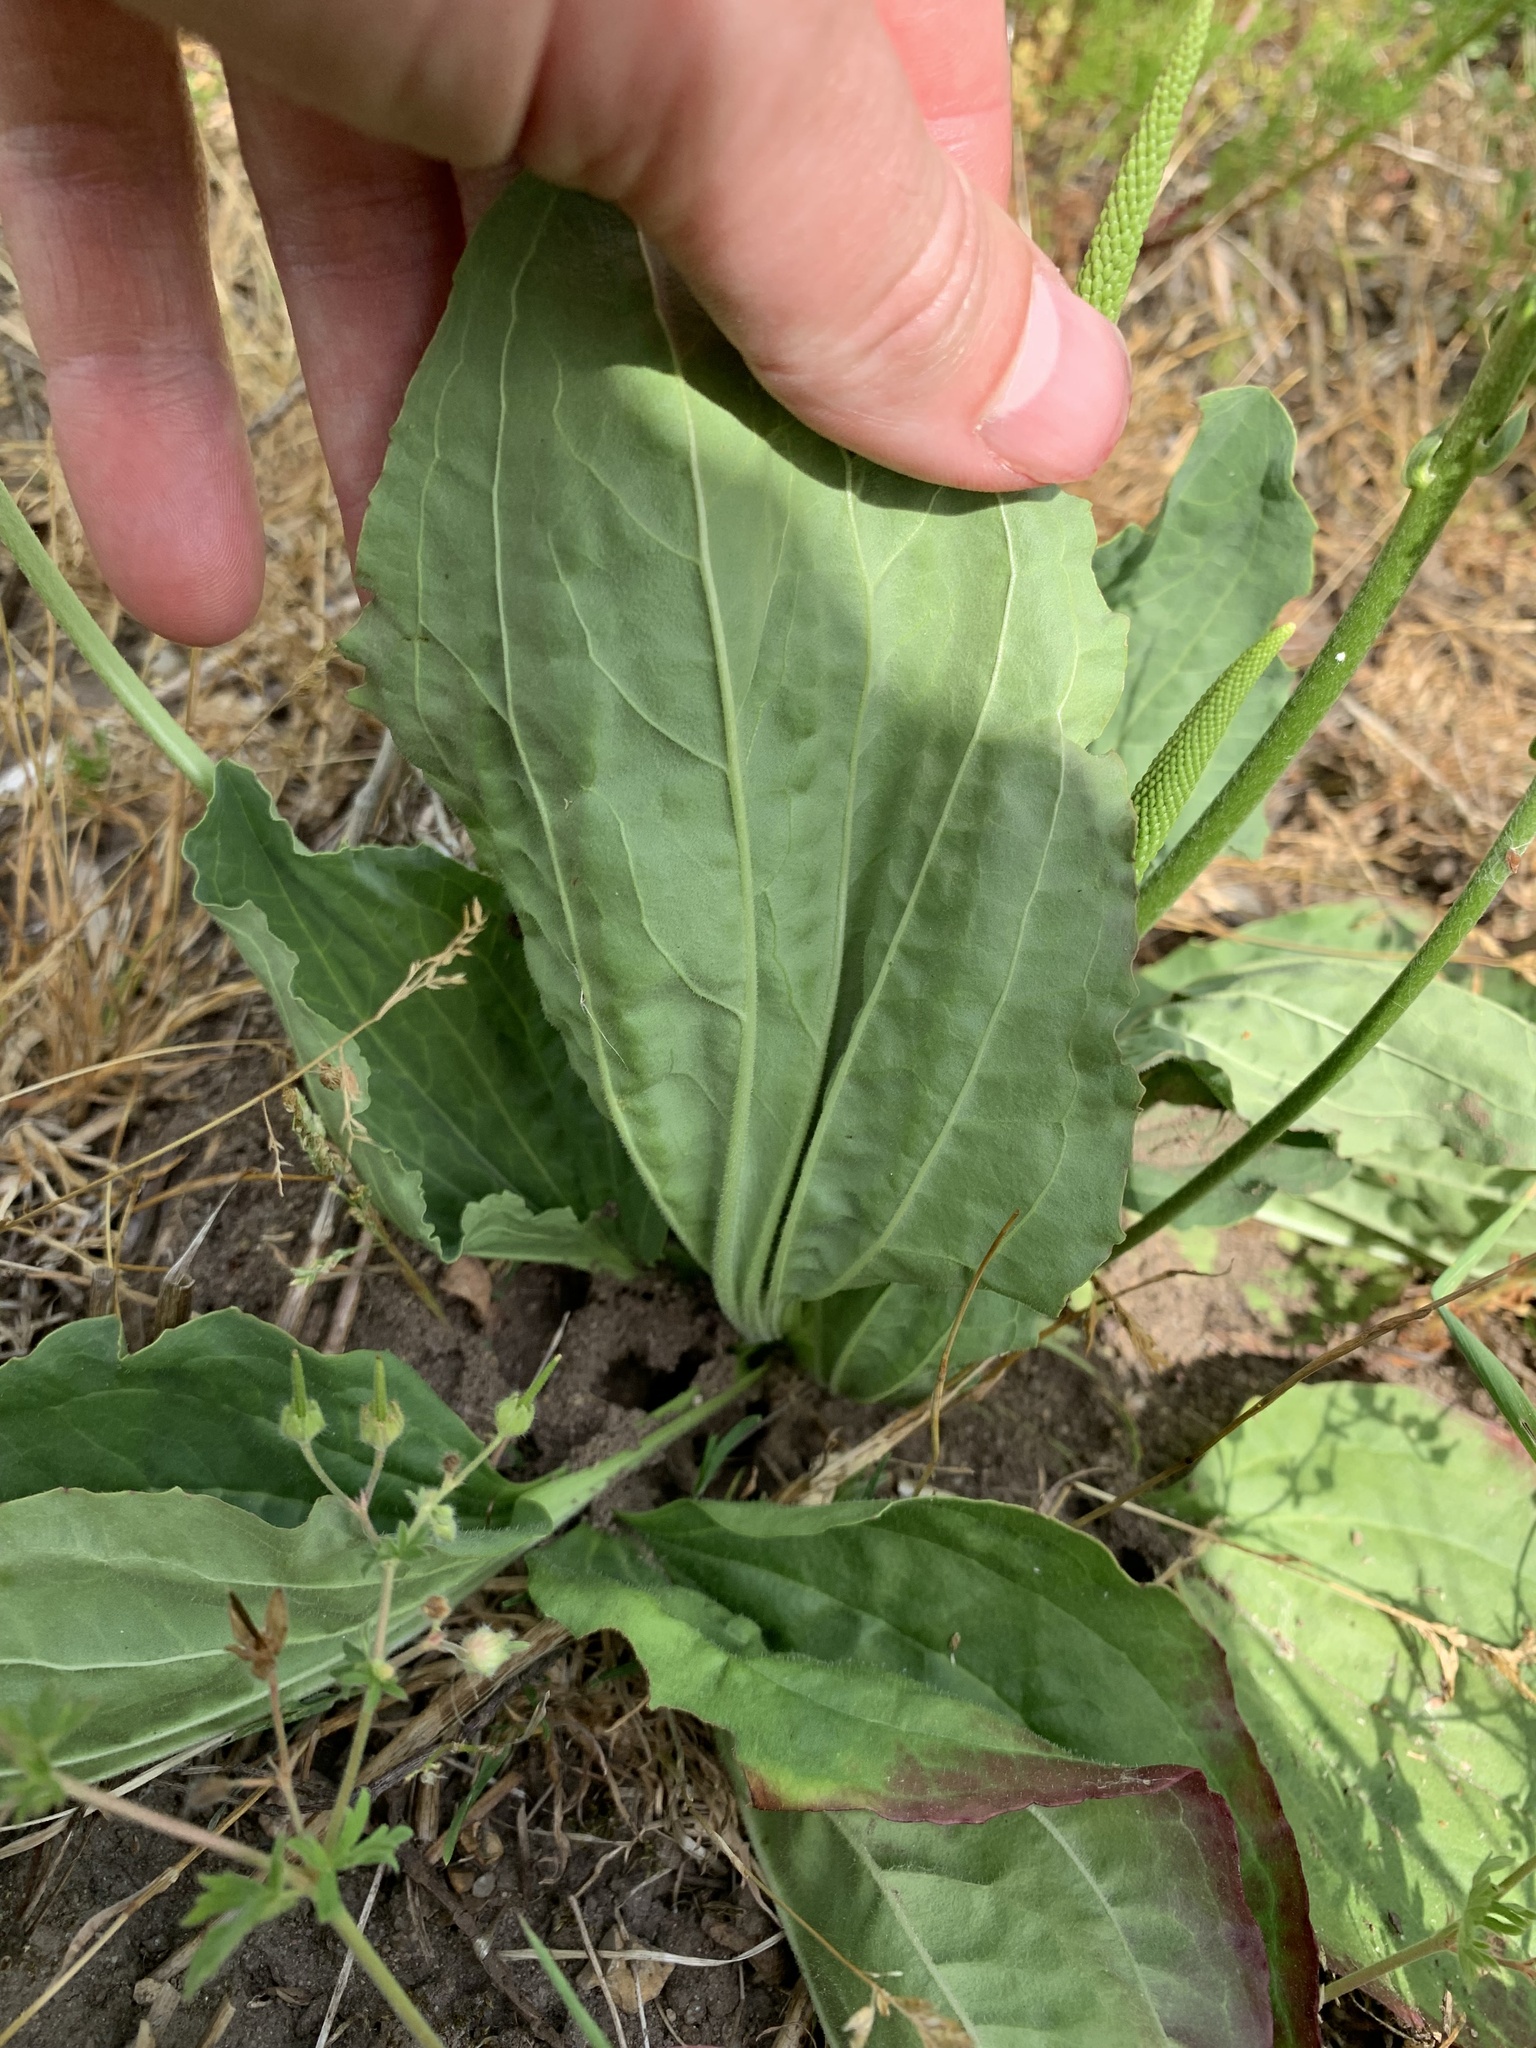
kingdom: Plantae
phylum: Tracheophyta
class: Magnoliopsida
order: Lamiales
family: Plantaginaceae
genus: Plantago
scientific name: Plantago major
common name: Common plantain
